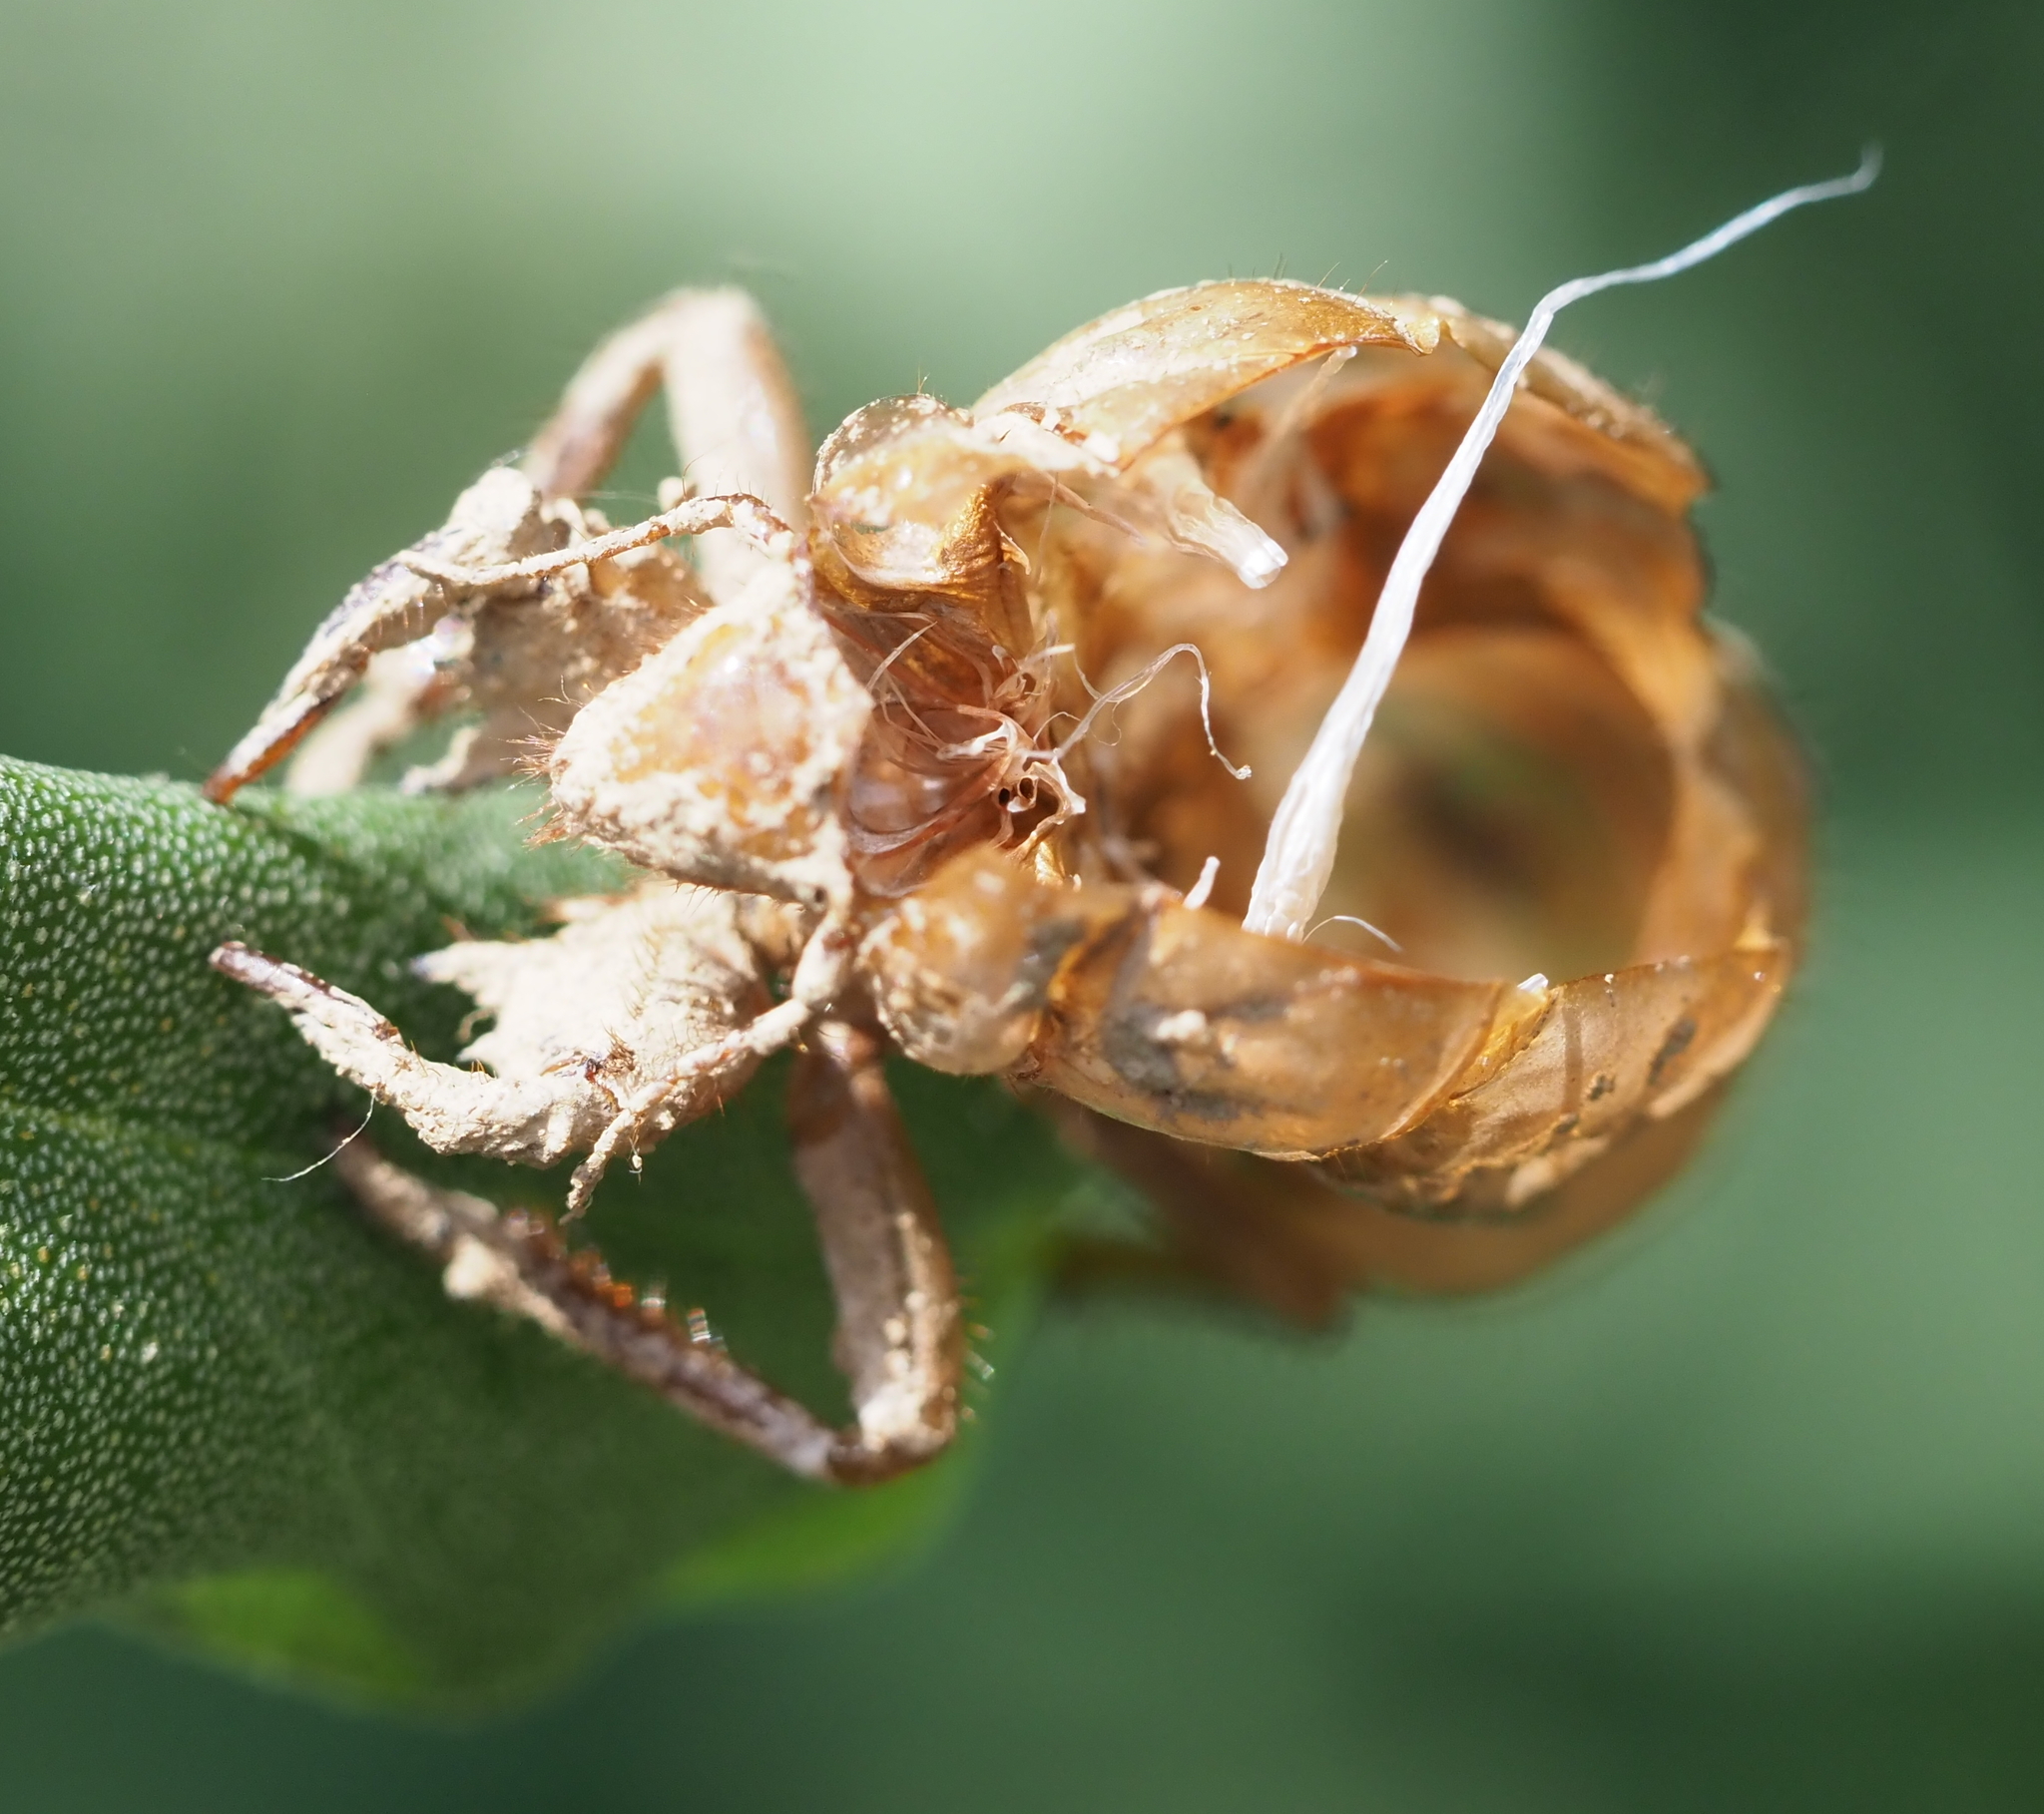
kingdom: Animalia
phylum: Arthropoda
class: Insecta
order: Hemiptera
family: Cicadidae
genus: Magicicada
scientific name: Magicicada septendecim
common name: Periodical cicada
